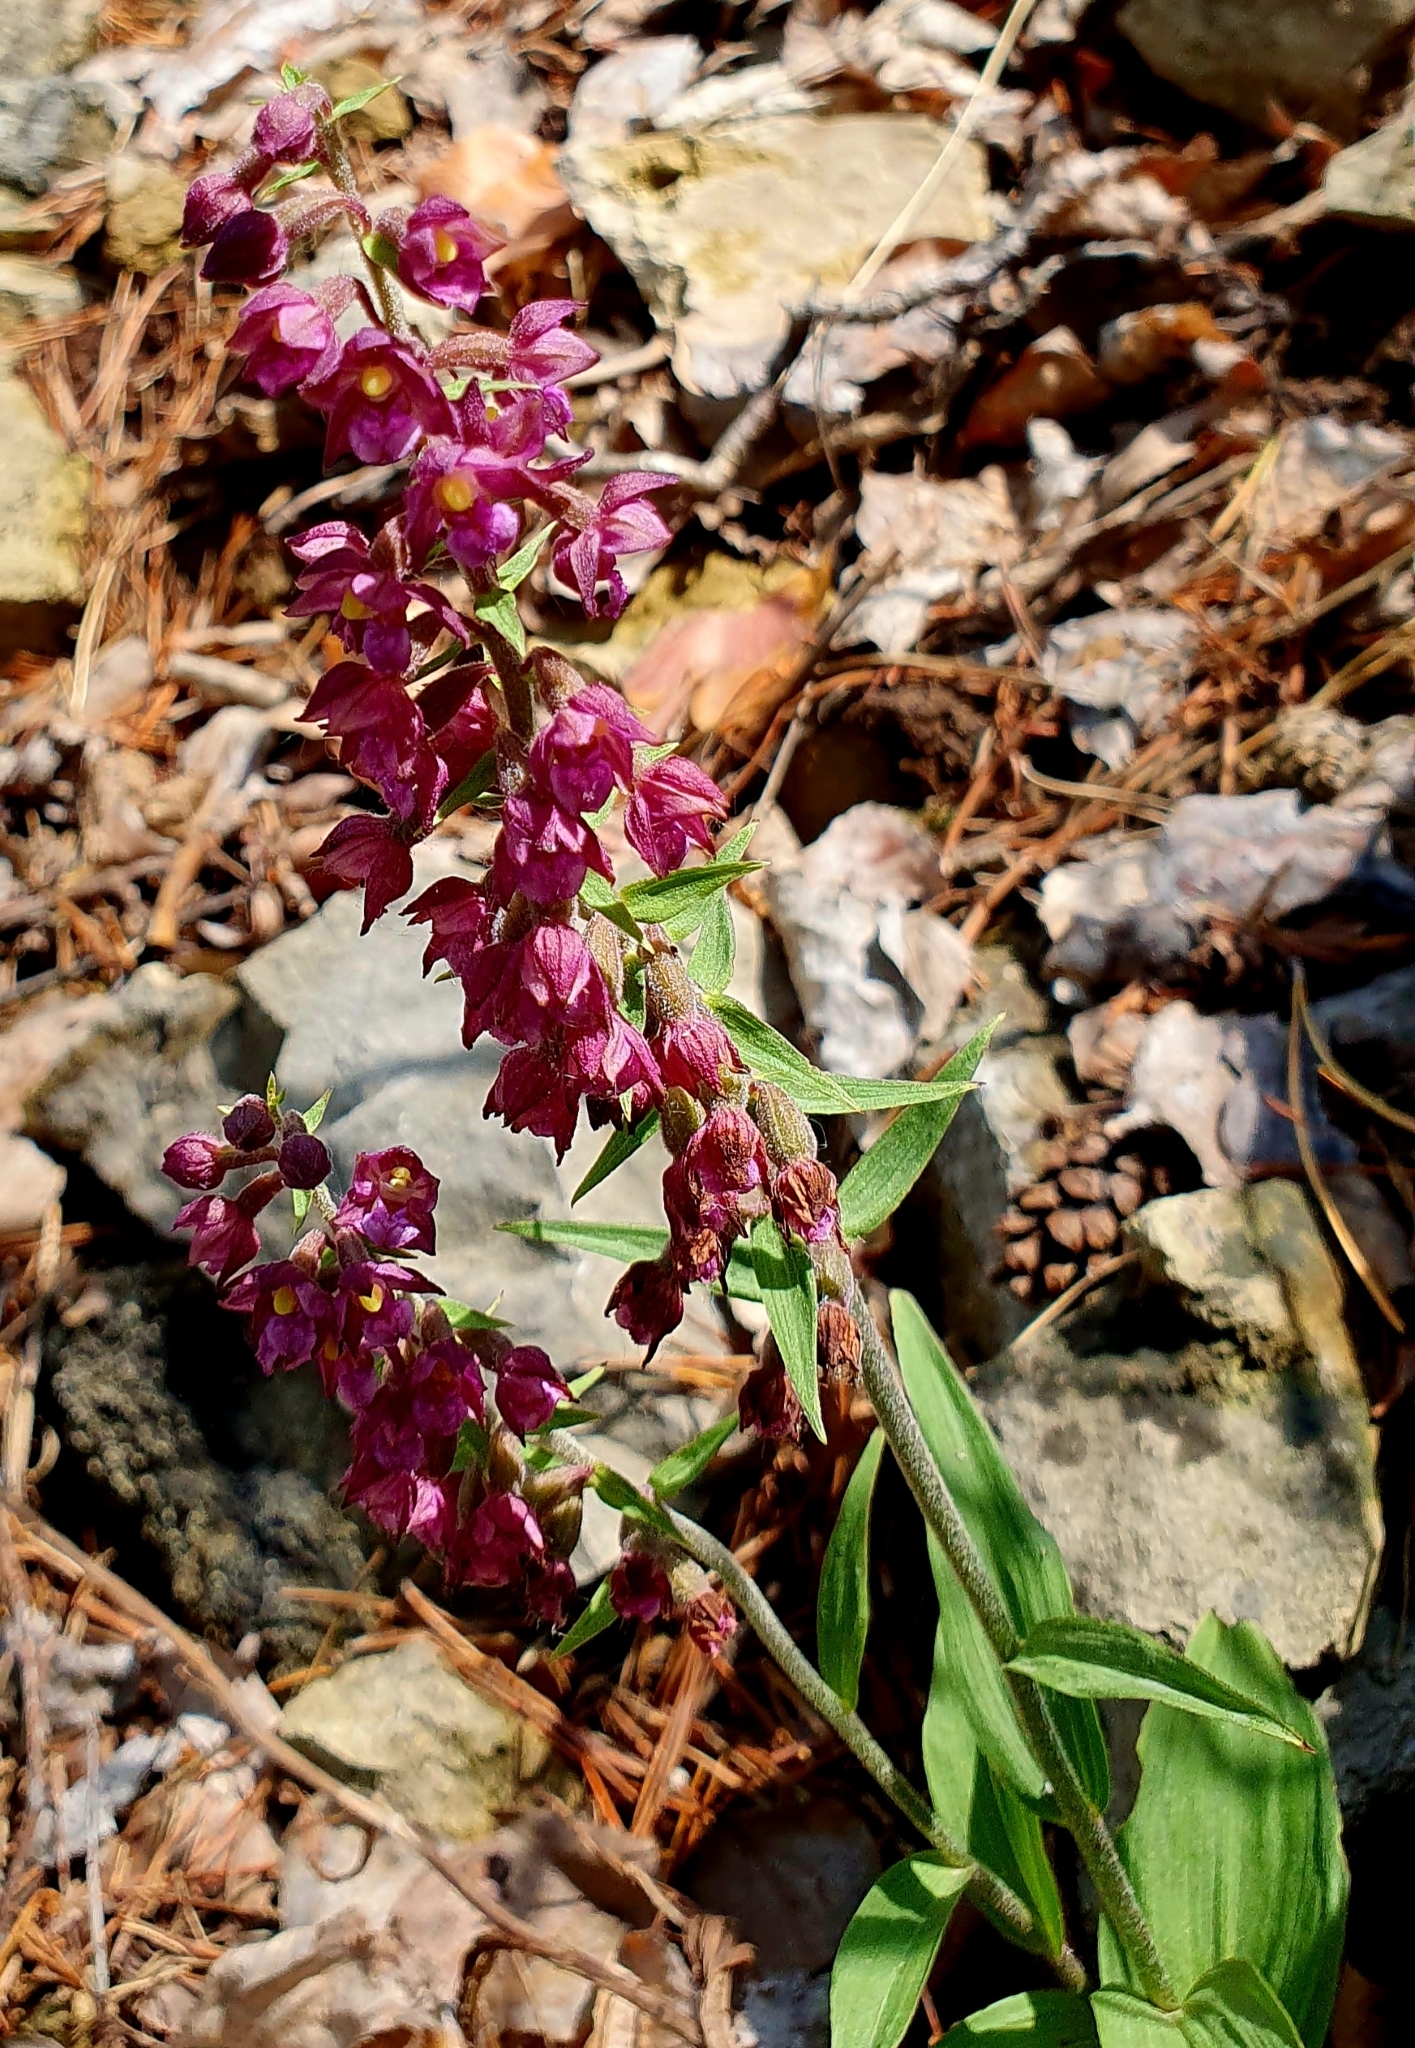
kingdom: Plantae
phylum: Tracheophyta
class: Liliopsida
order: Asparagales
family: Orchidaceae
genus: Epipactis
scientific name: Epipactis atrorubens
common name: Dark-red helleborine
